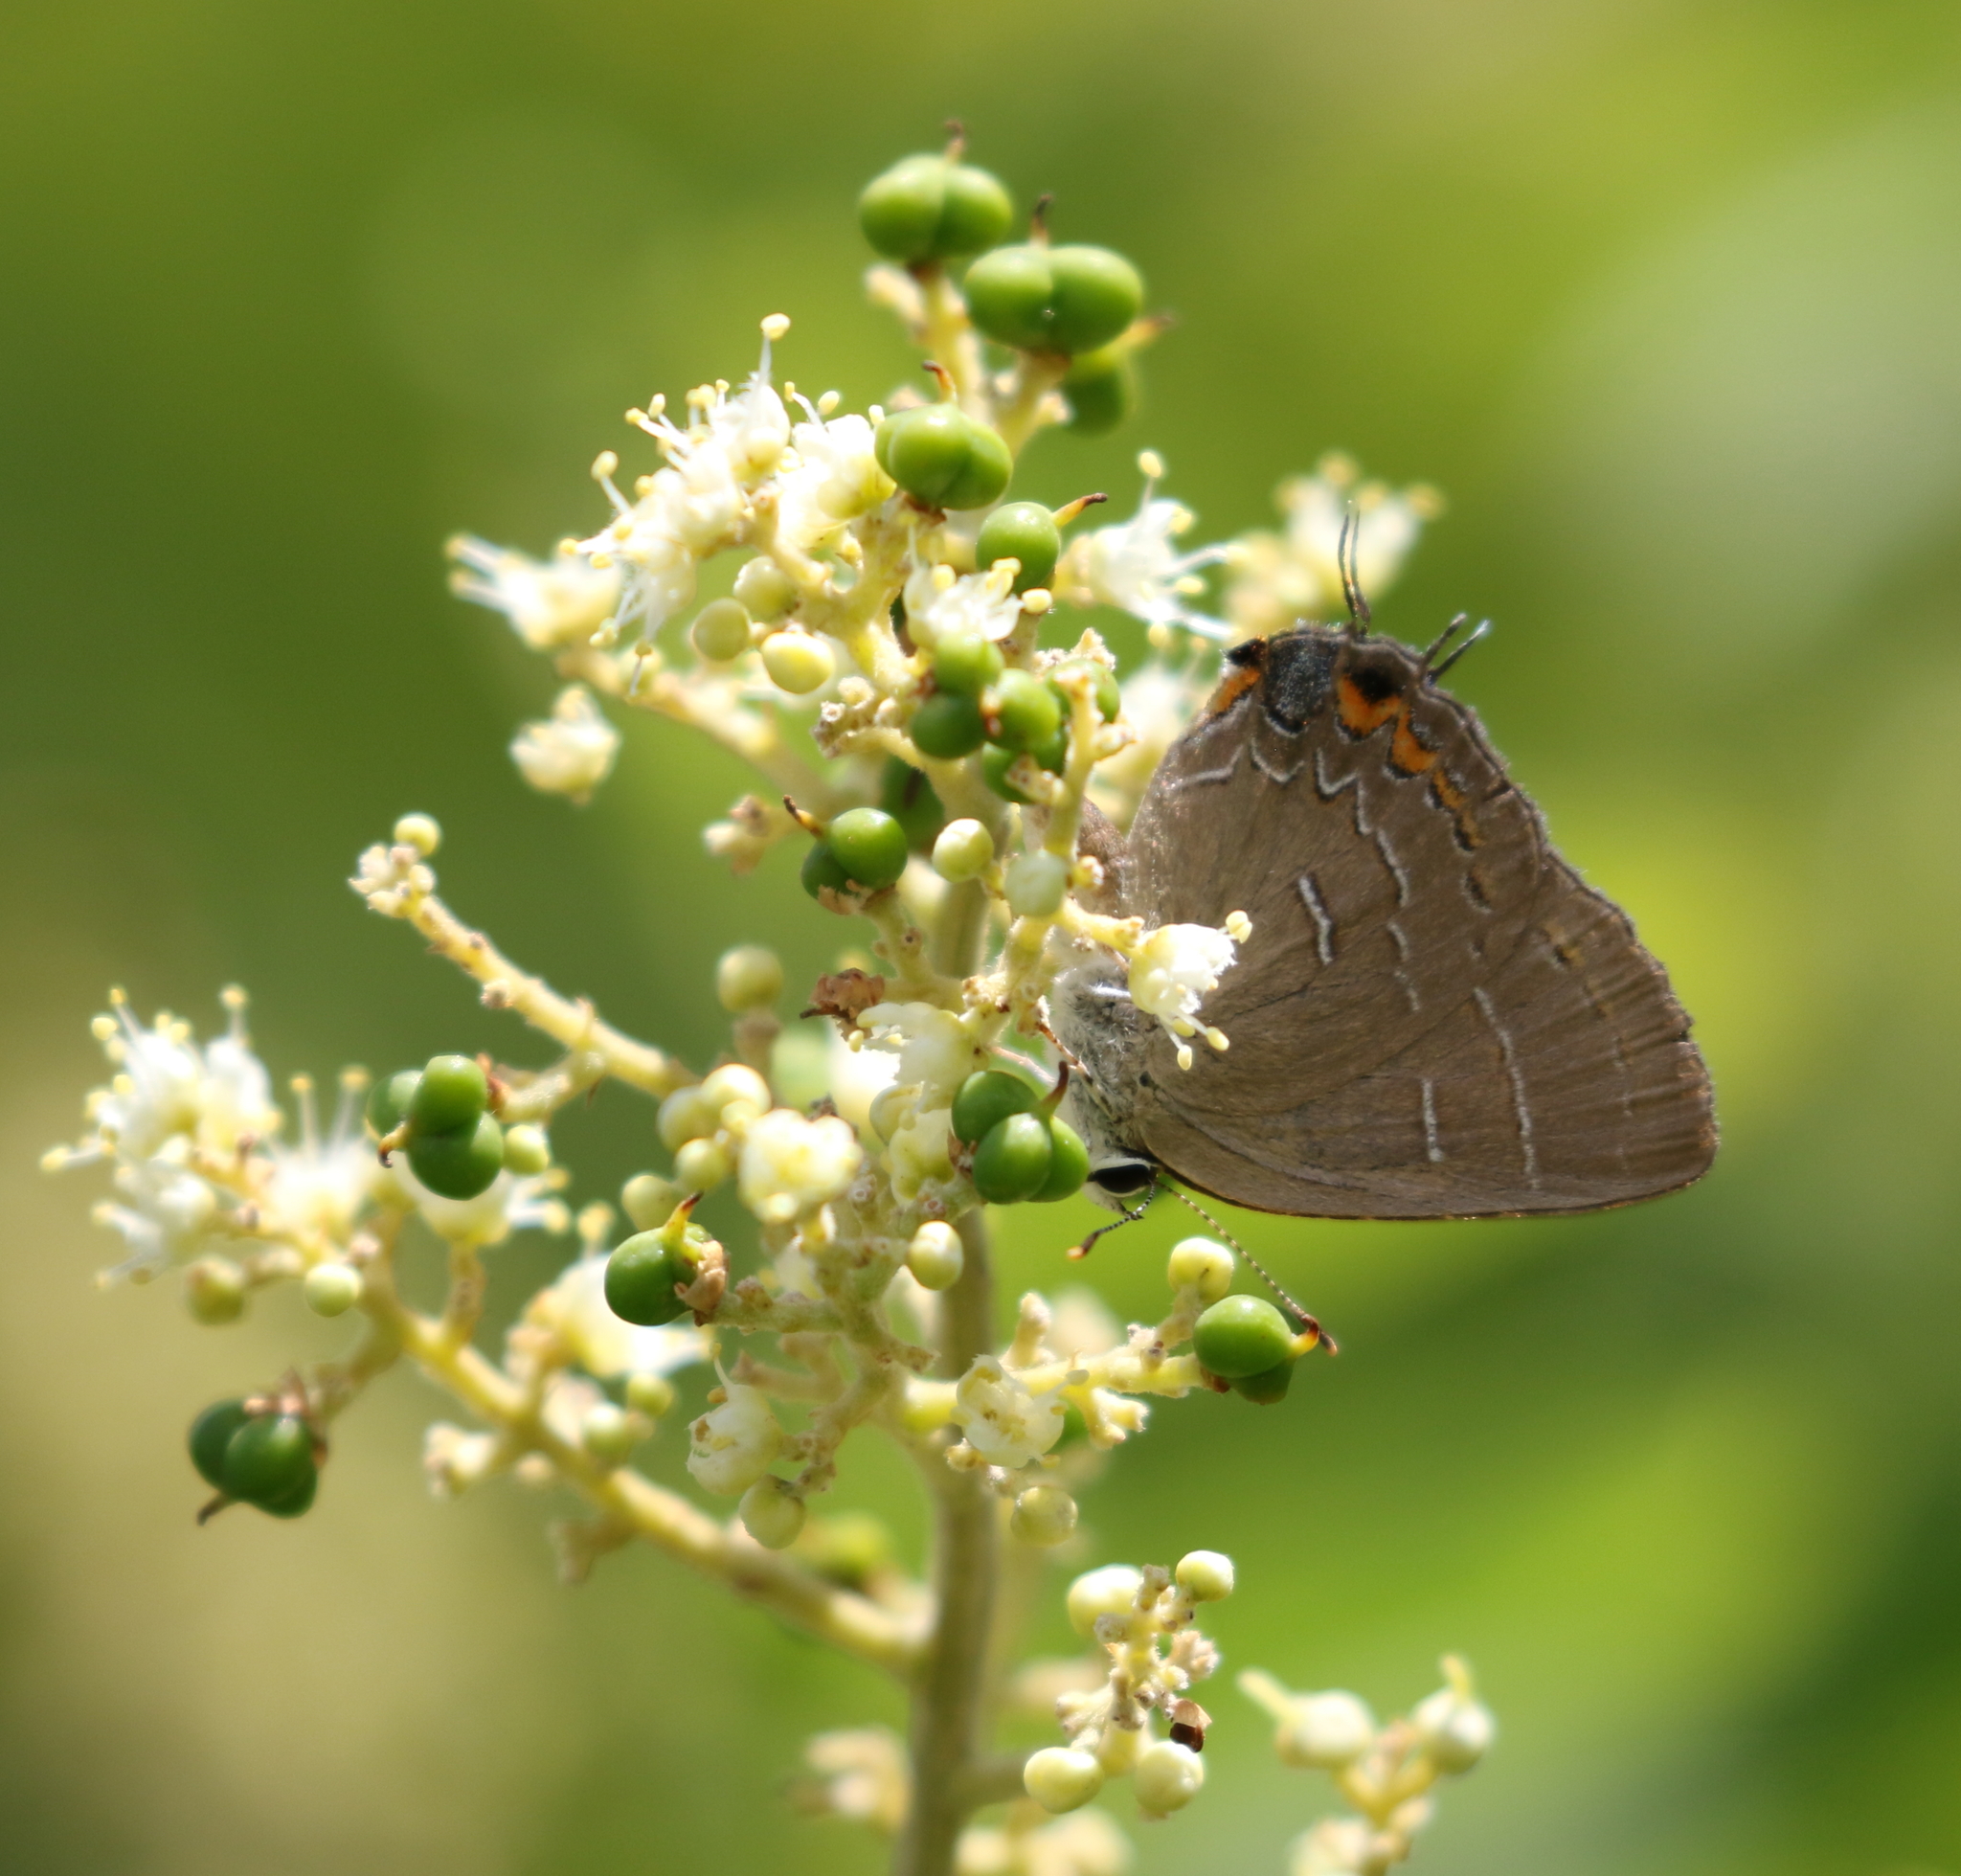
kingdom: Animalia
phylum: Arthropoda
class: Insecta
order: Lepidoptera
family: Lycaenidae
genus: Phaeostrymon
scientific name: Phaeostrymon alcestis
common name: Soapberry hairstreak
